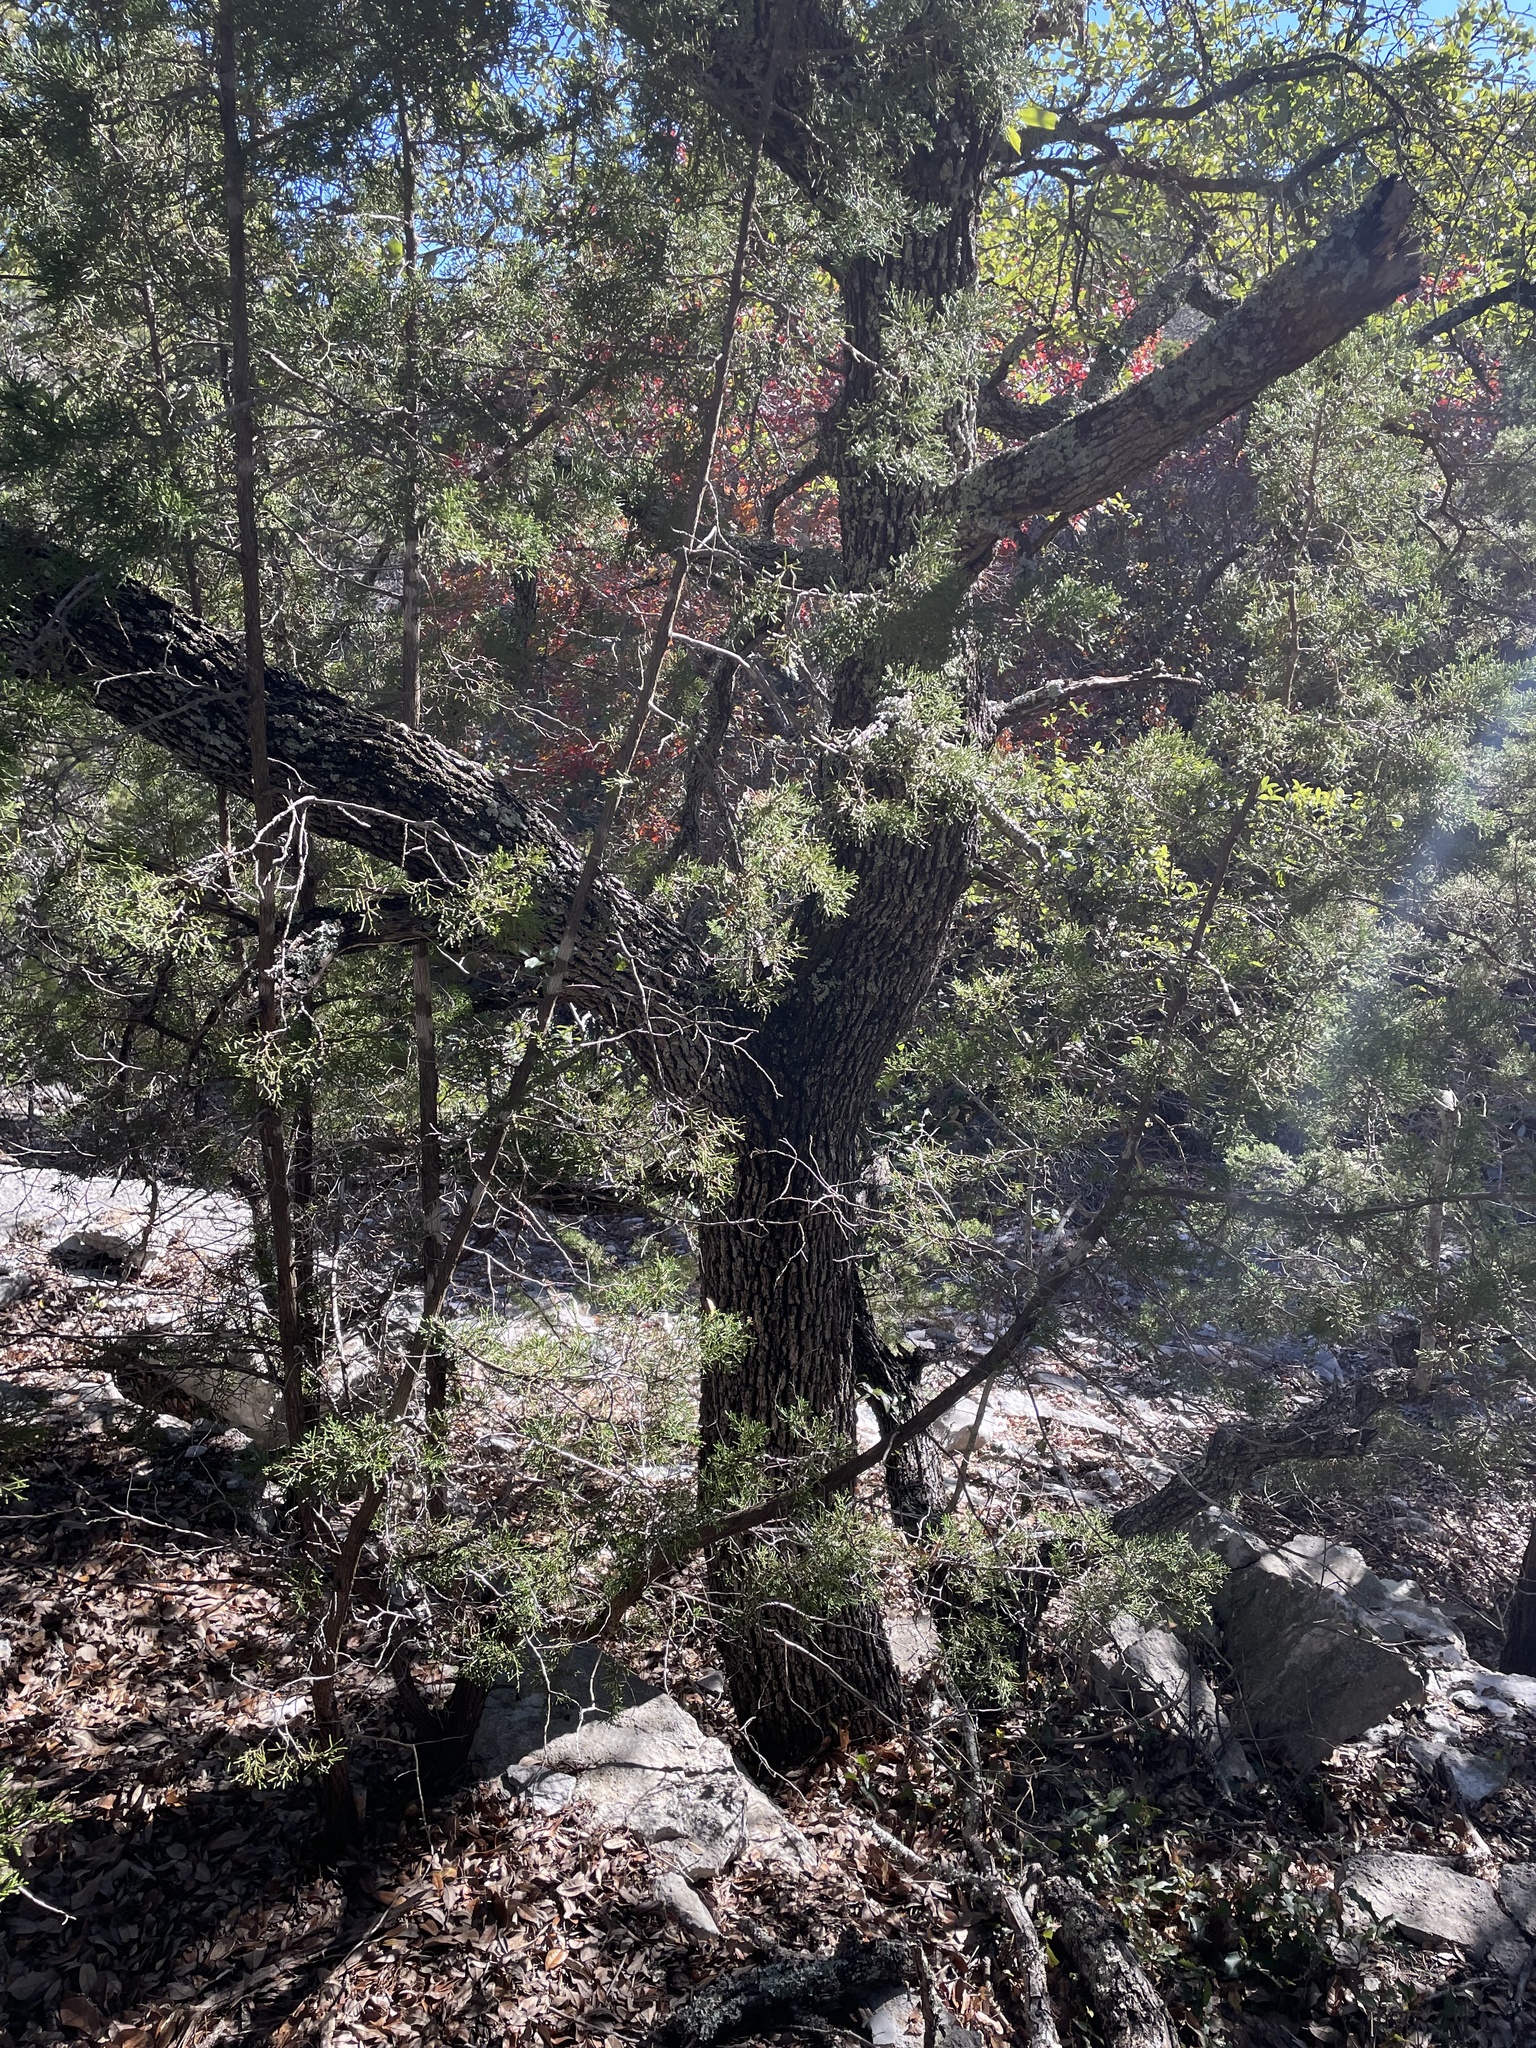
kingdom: Plantae
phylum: Tracheophyta
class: Magnoliopsida
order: Fagales
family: Fagaceae
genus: Quercus
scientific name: Quercus fusiformis
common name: Texas live oak
